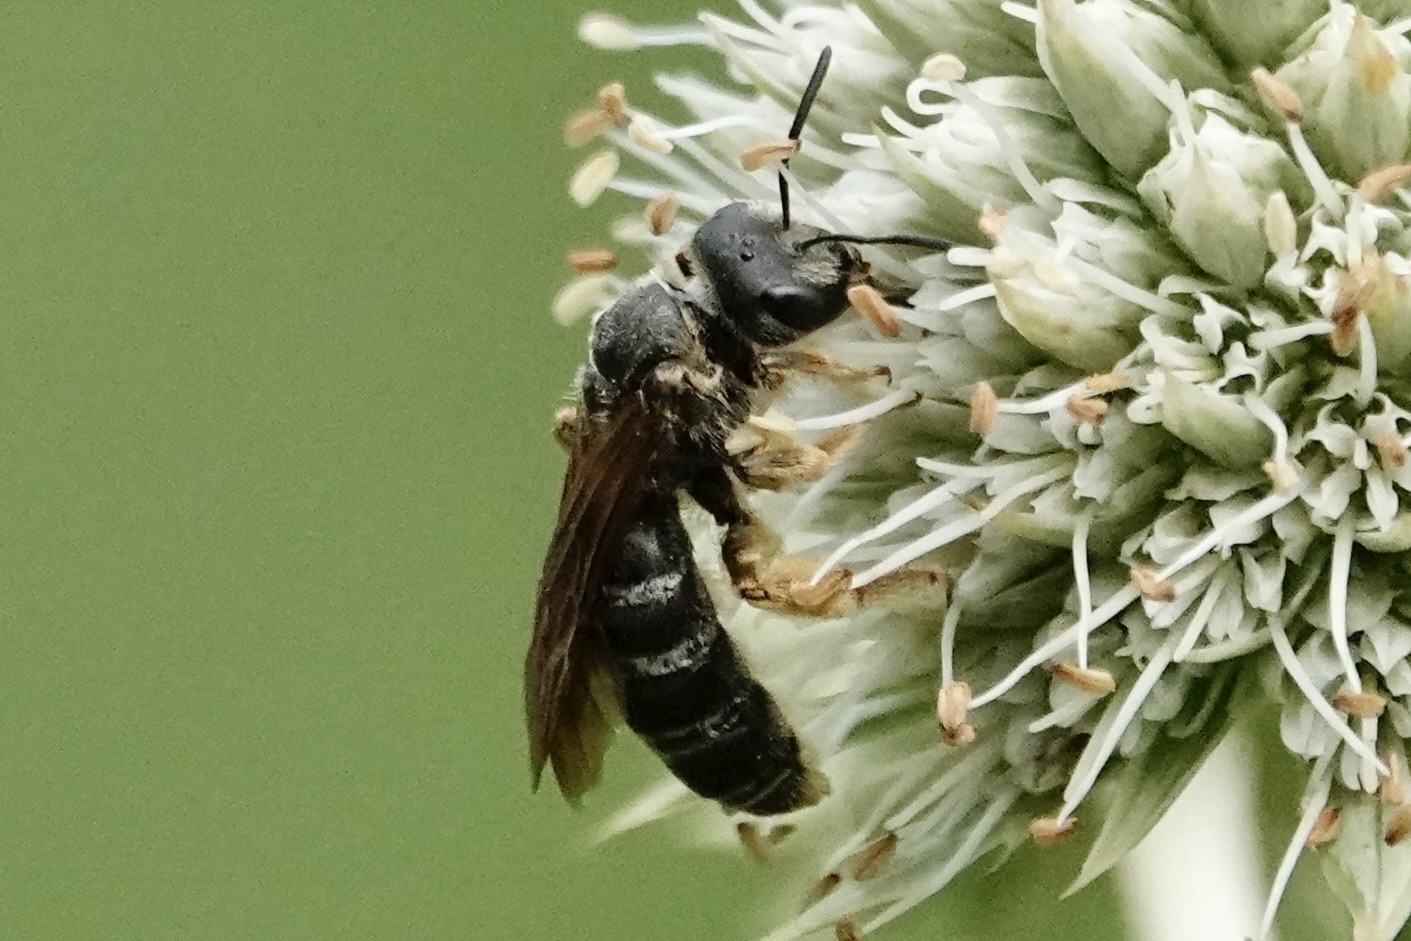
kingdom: Animalia
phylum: Arthropoda
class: Insecta
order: Hymenoptera
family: Halictidae
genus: Halictus
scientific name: Halictus parallelus
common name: Parallel-striped sweat bee
